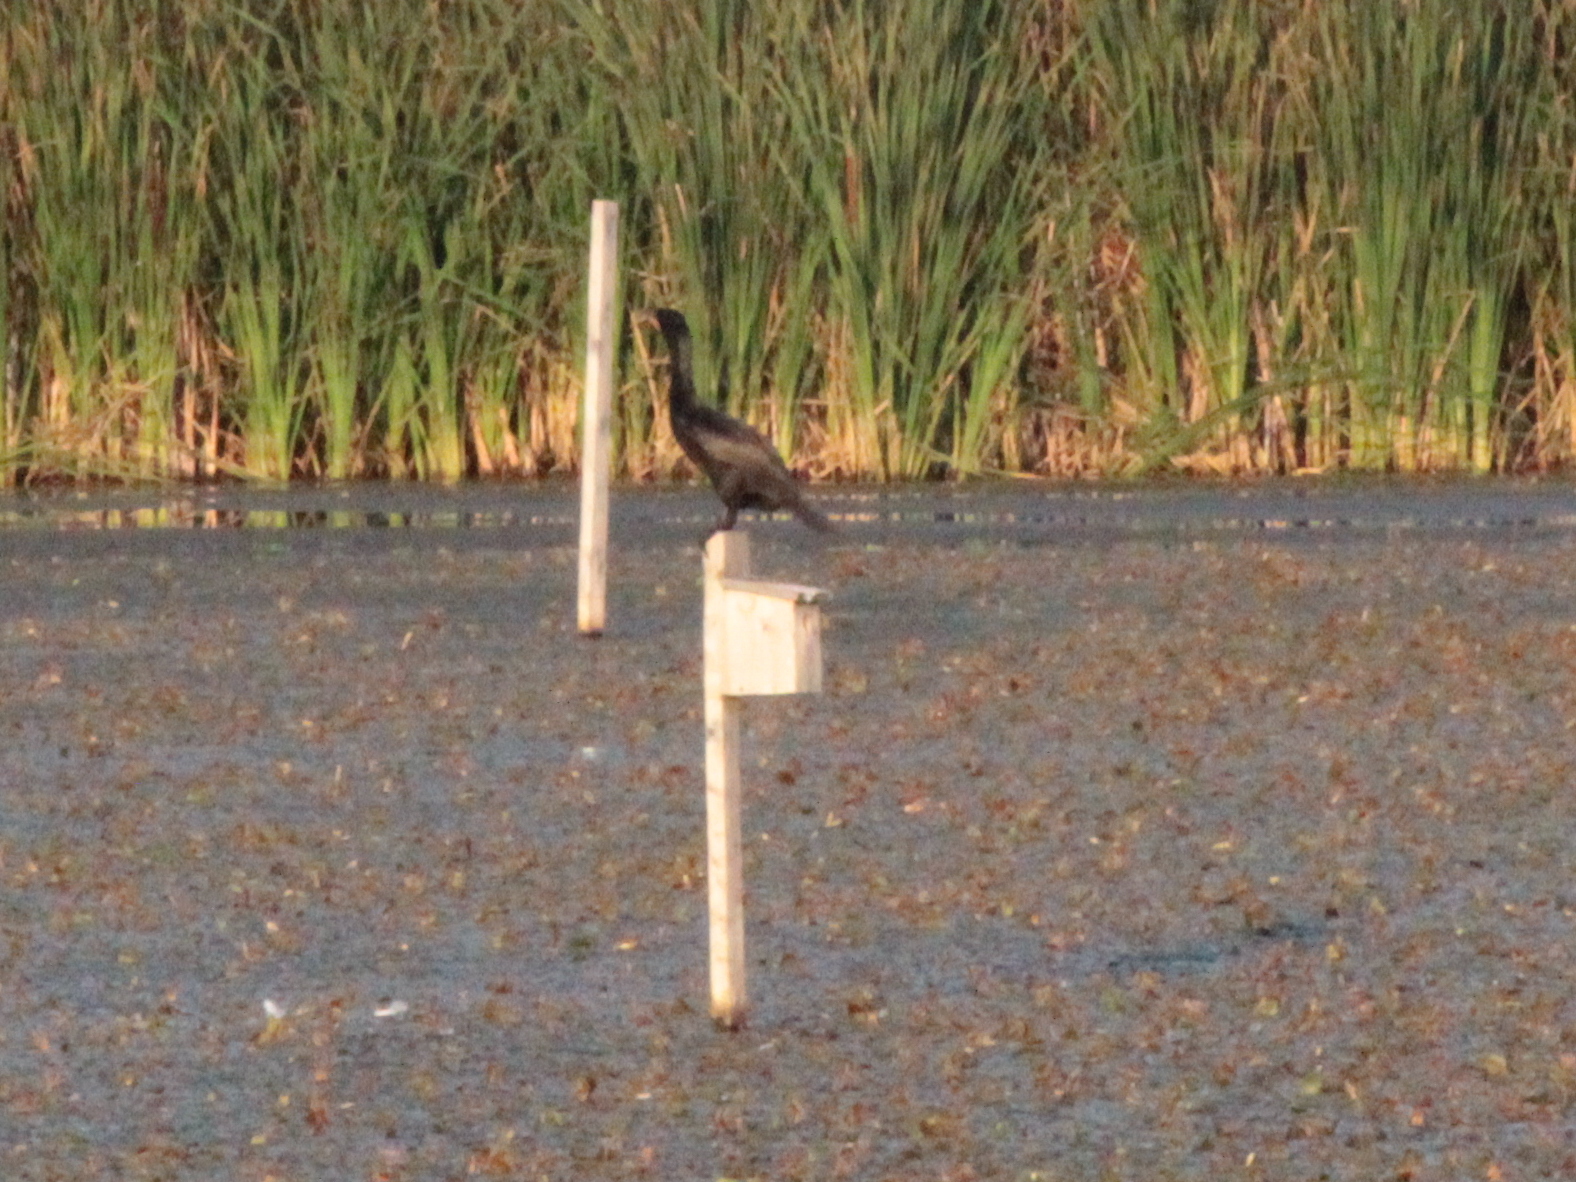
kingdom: Animalia
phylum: Chordata
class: Aves
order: Suliformes
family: Phalacrocoracidae
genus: Phalacrocorax
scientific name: Phalacrocorax auritus
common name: Double-crested cormorant
